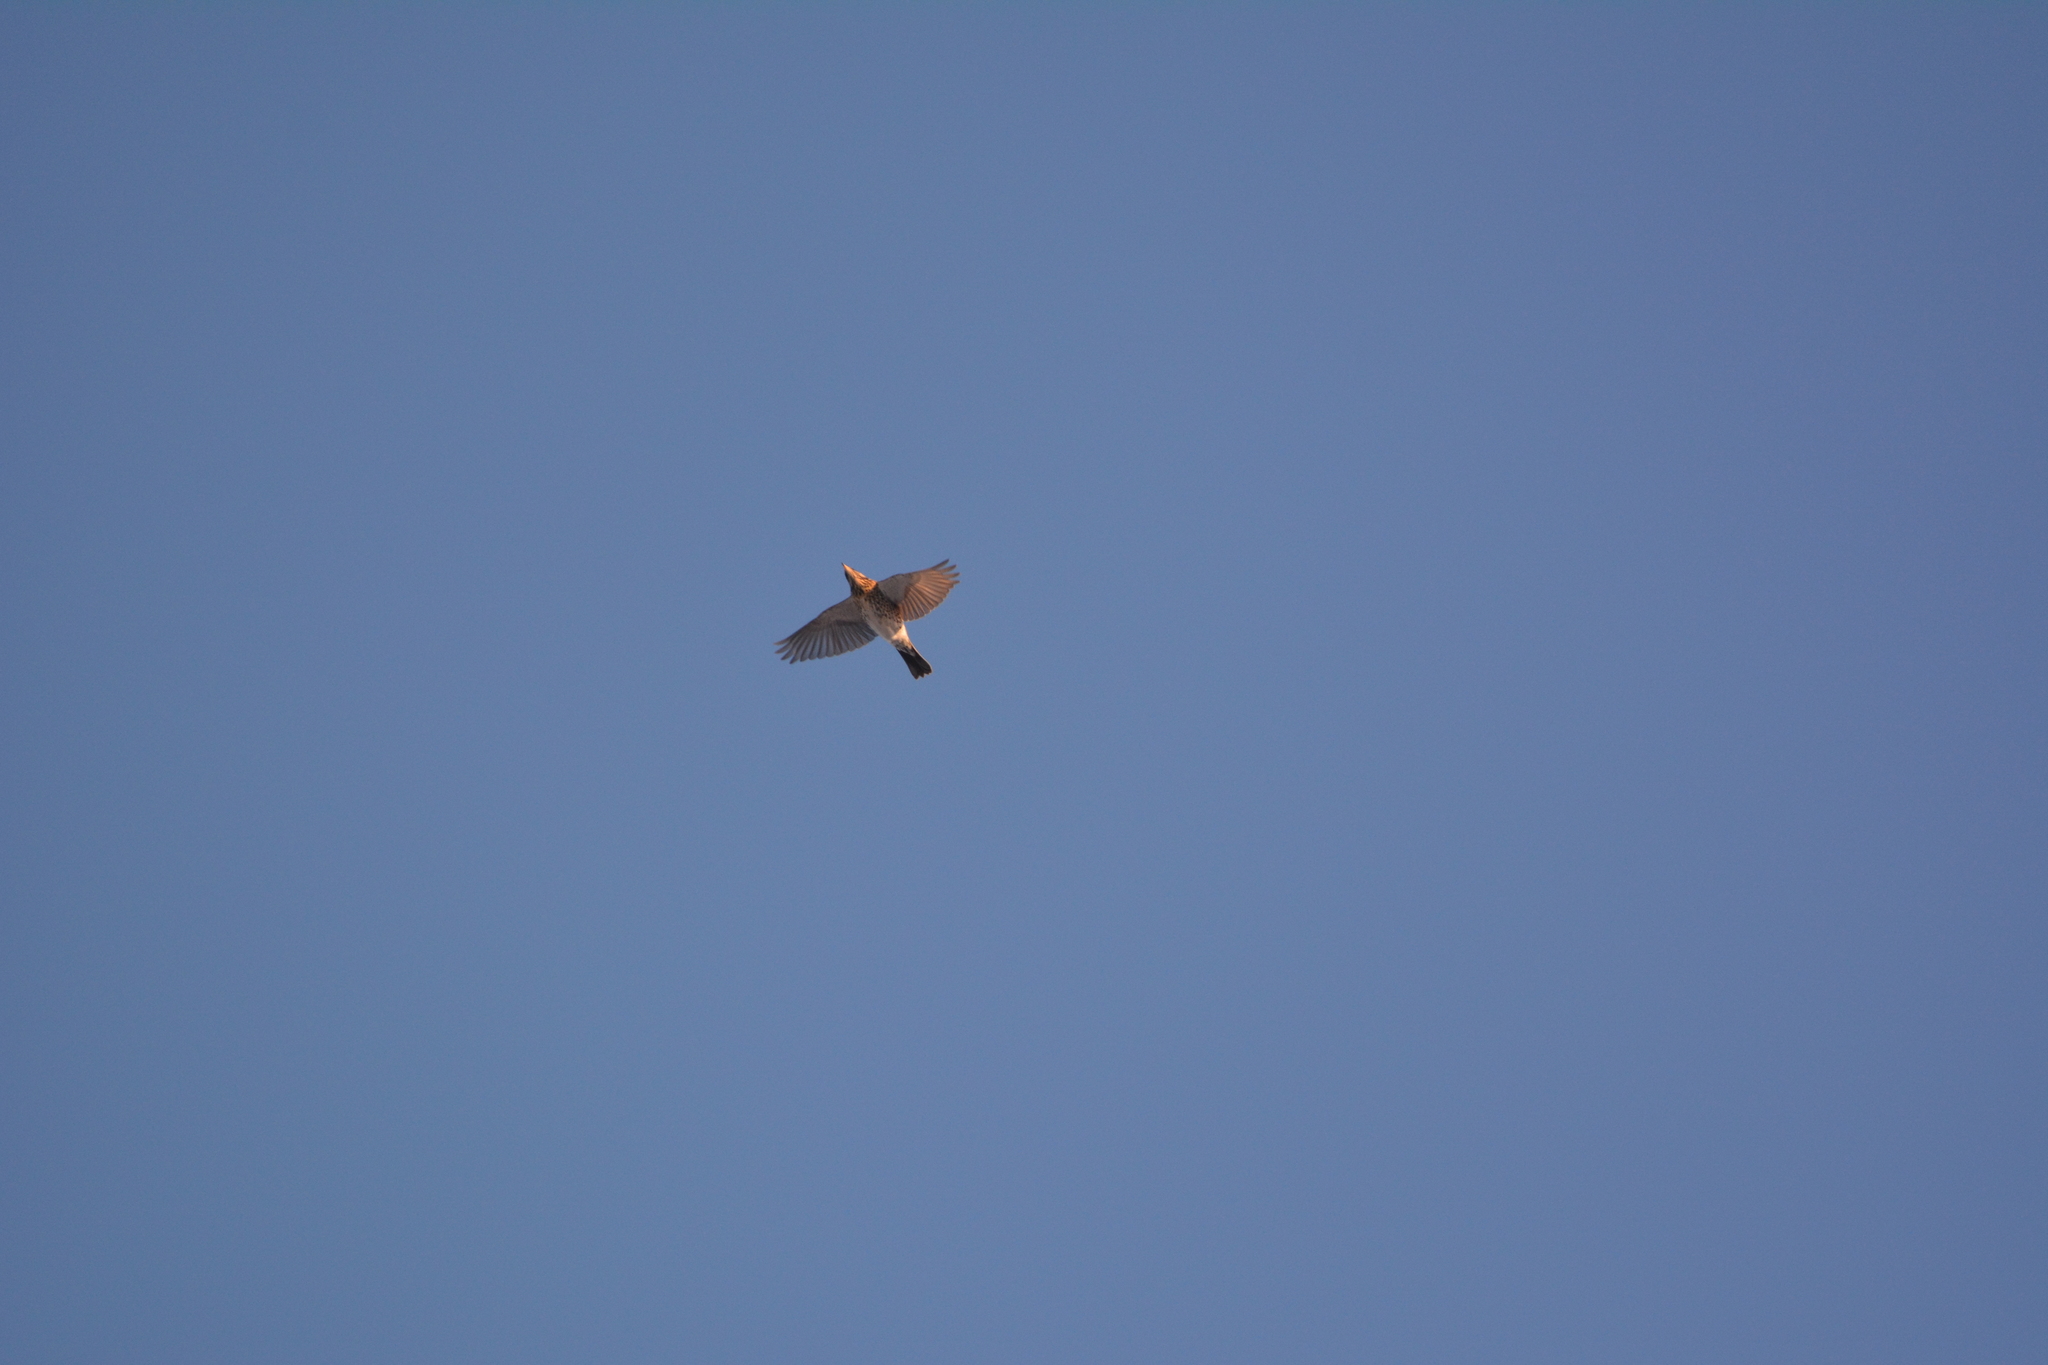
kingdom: Animalia
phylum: Chordata
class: Aves
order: Passeriformes
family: Turdidae
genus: Turdus
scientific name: Turdus pilaris
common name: Fieldfare
